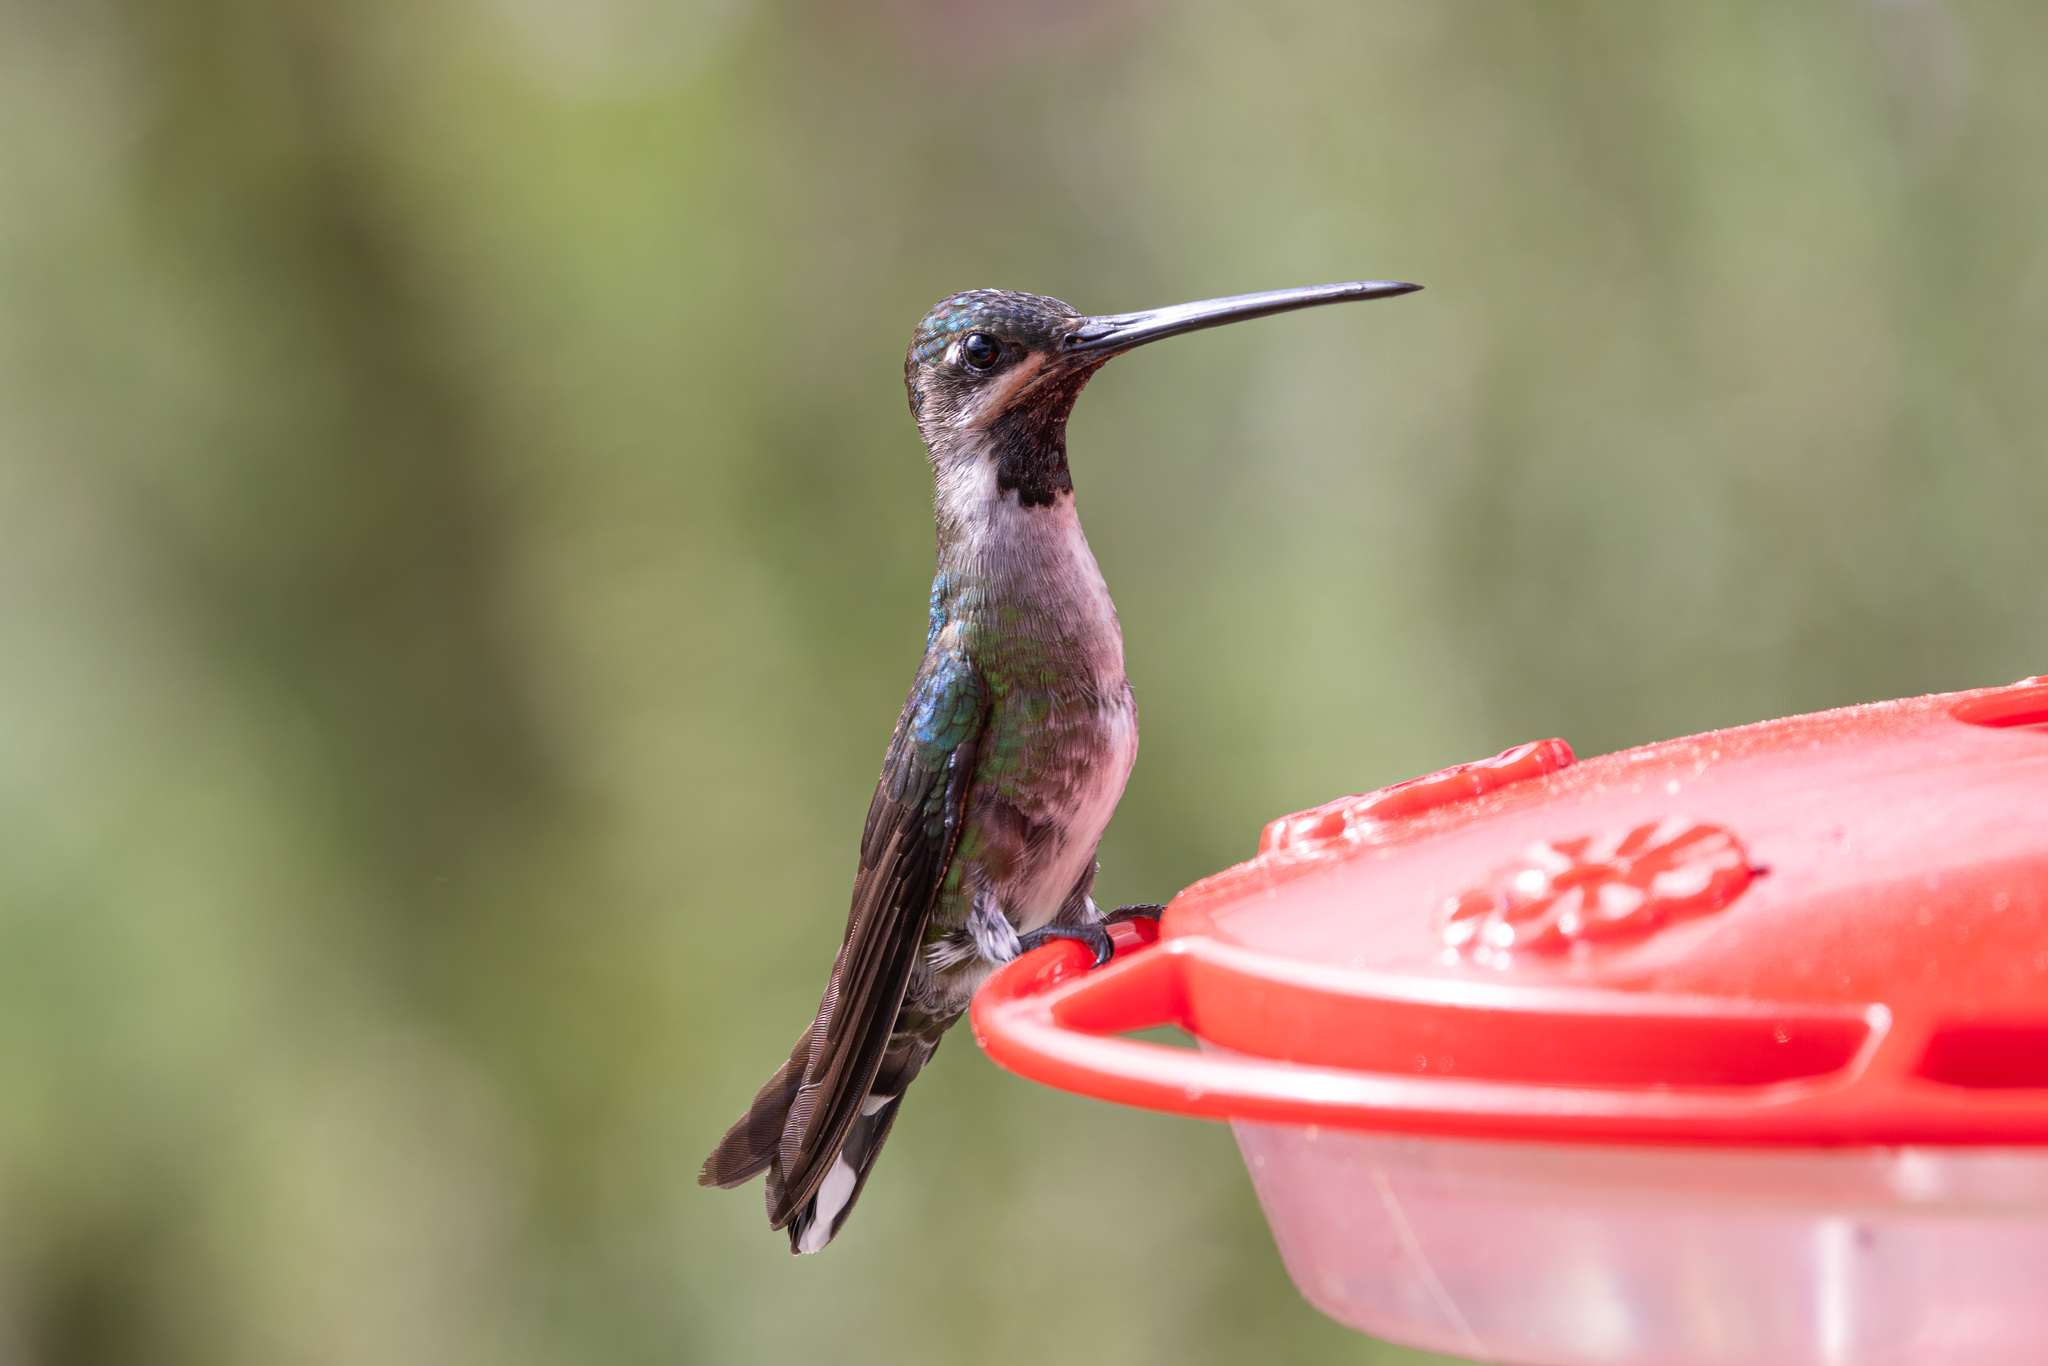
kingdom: Animalia
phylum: Chordata
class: Aves
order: Apodiformes
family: Trochilidae
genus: Heliomaster
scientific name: Heliomaster longirostris
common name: Long-billed starthroat
